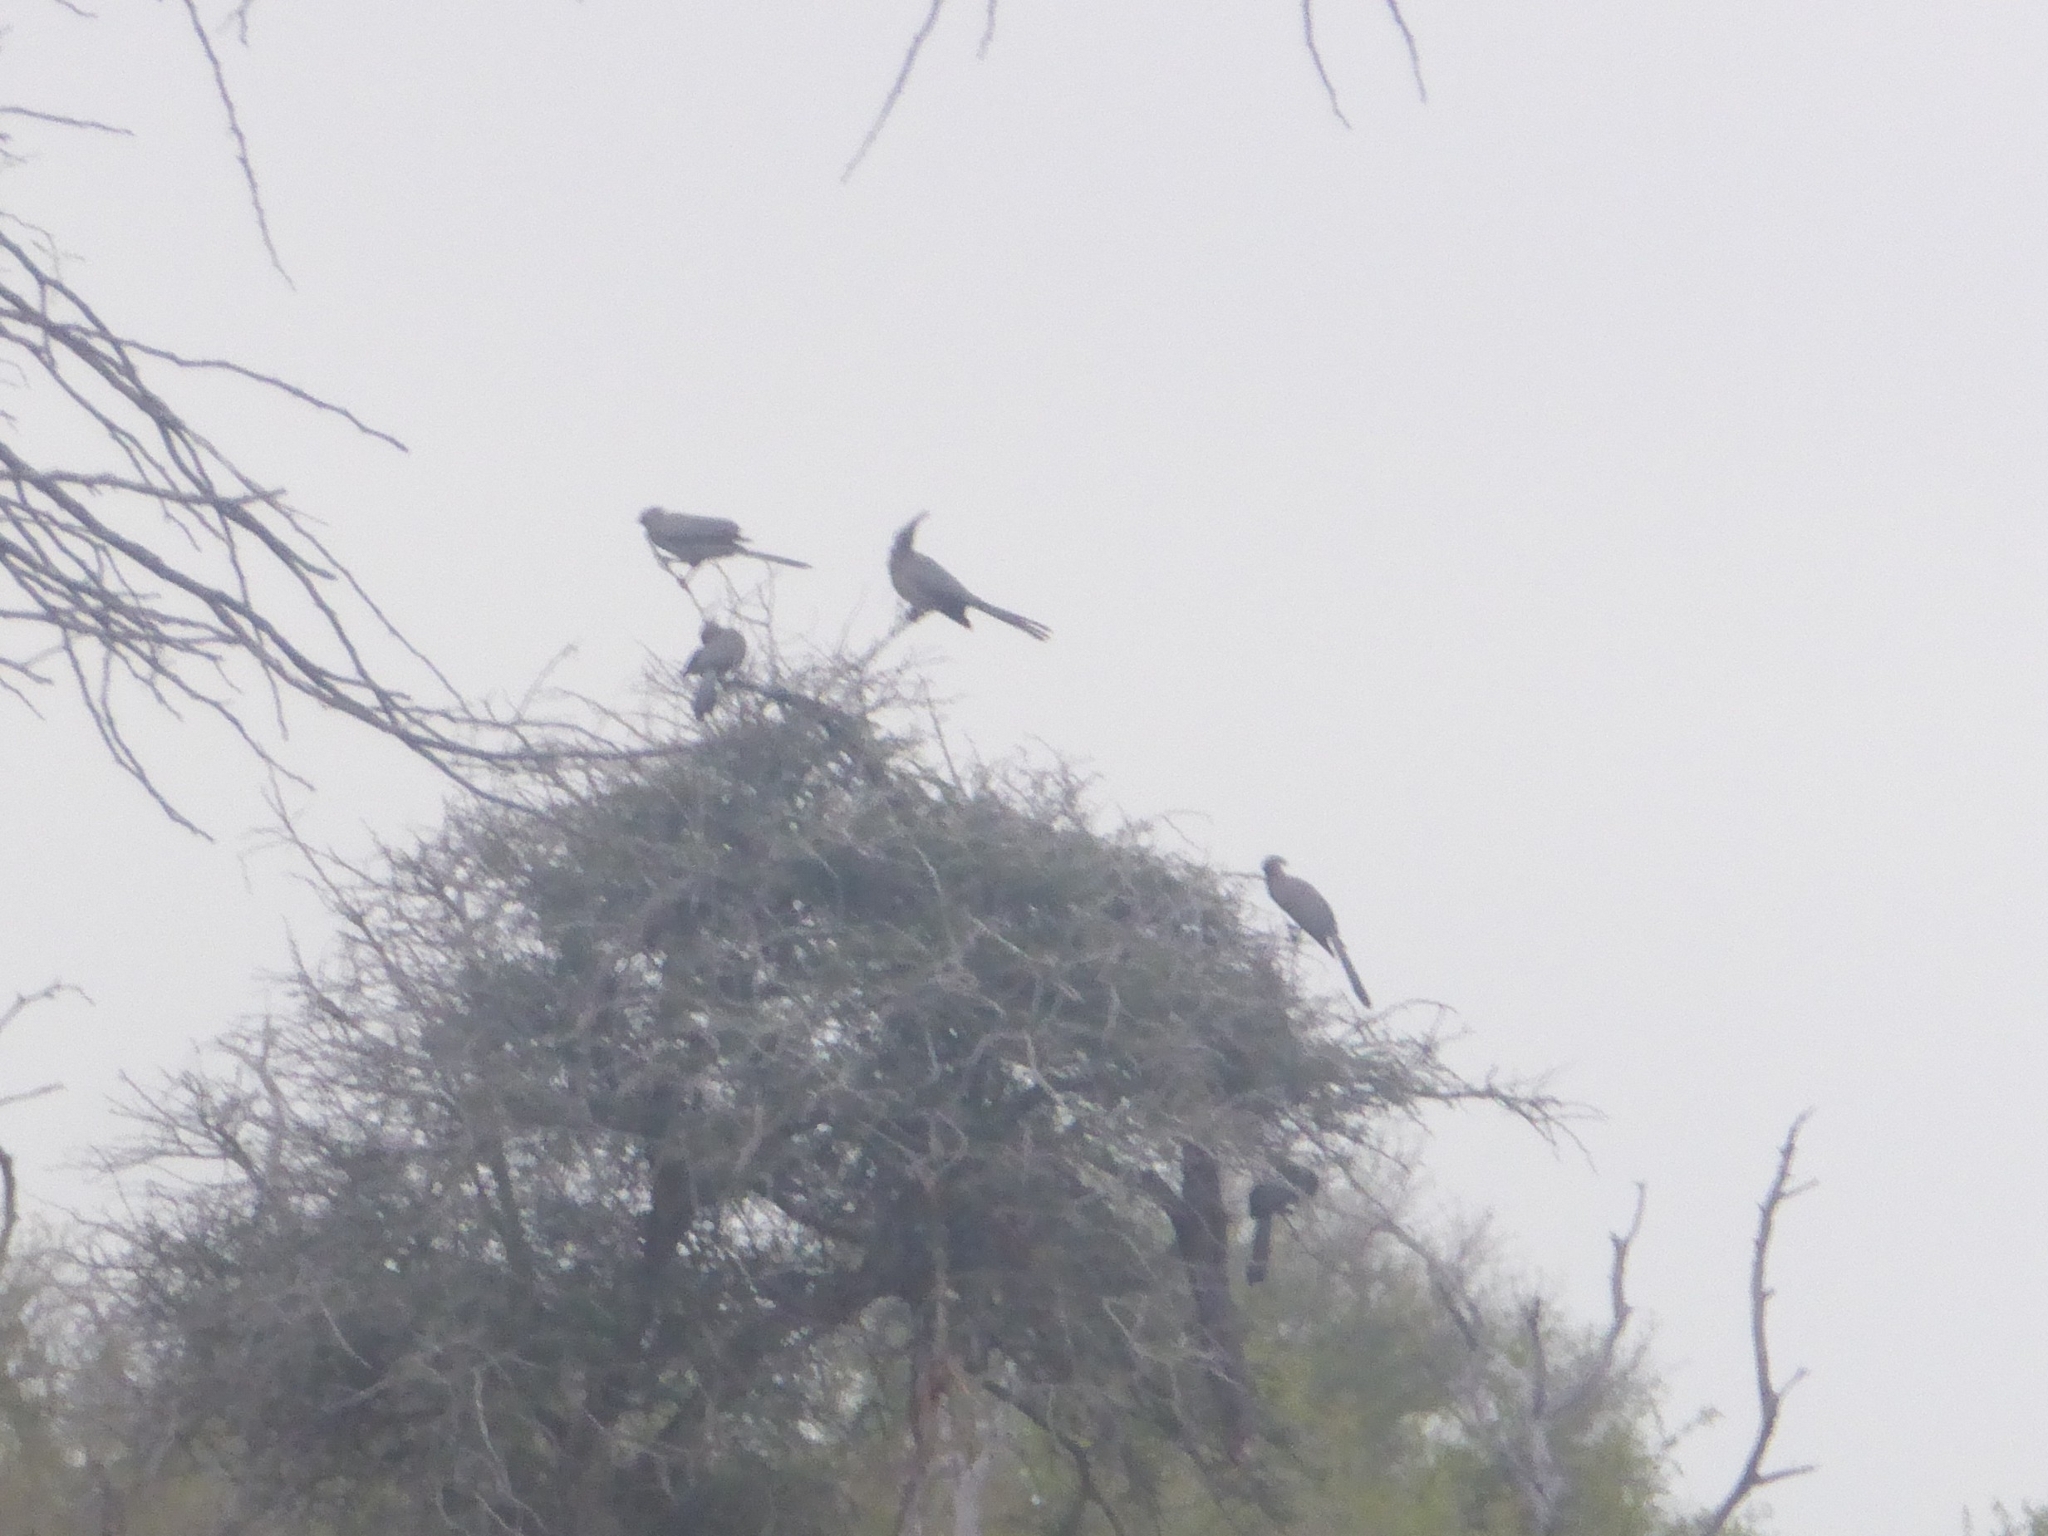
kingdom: Animalia
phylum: Chordata
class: Aves
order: Musophagiformes
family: Musophagidae
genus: Corythaixoides
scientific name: Corythaixoides concolor
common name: Grey go-away-bird
